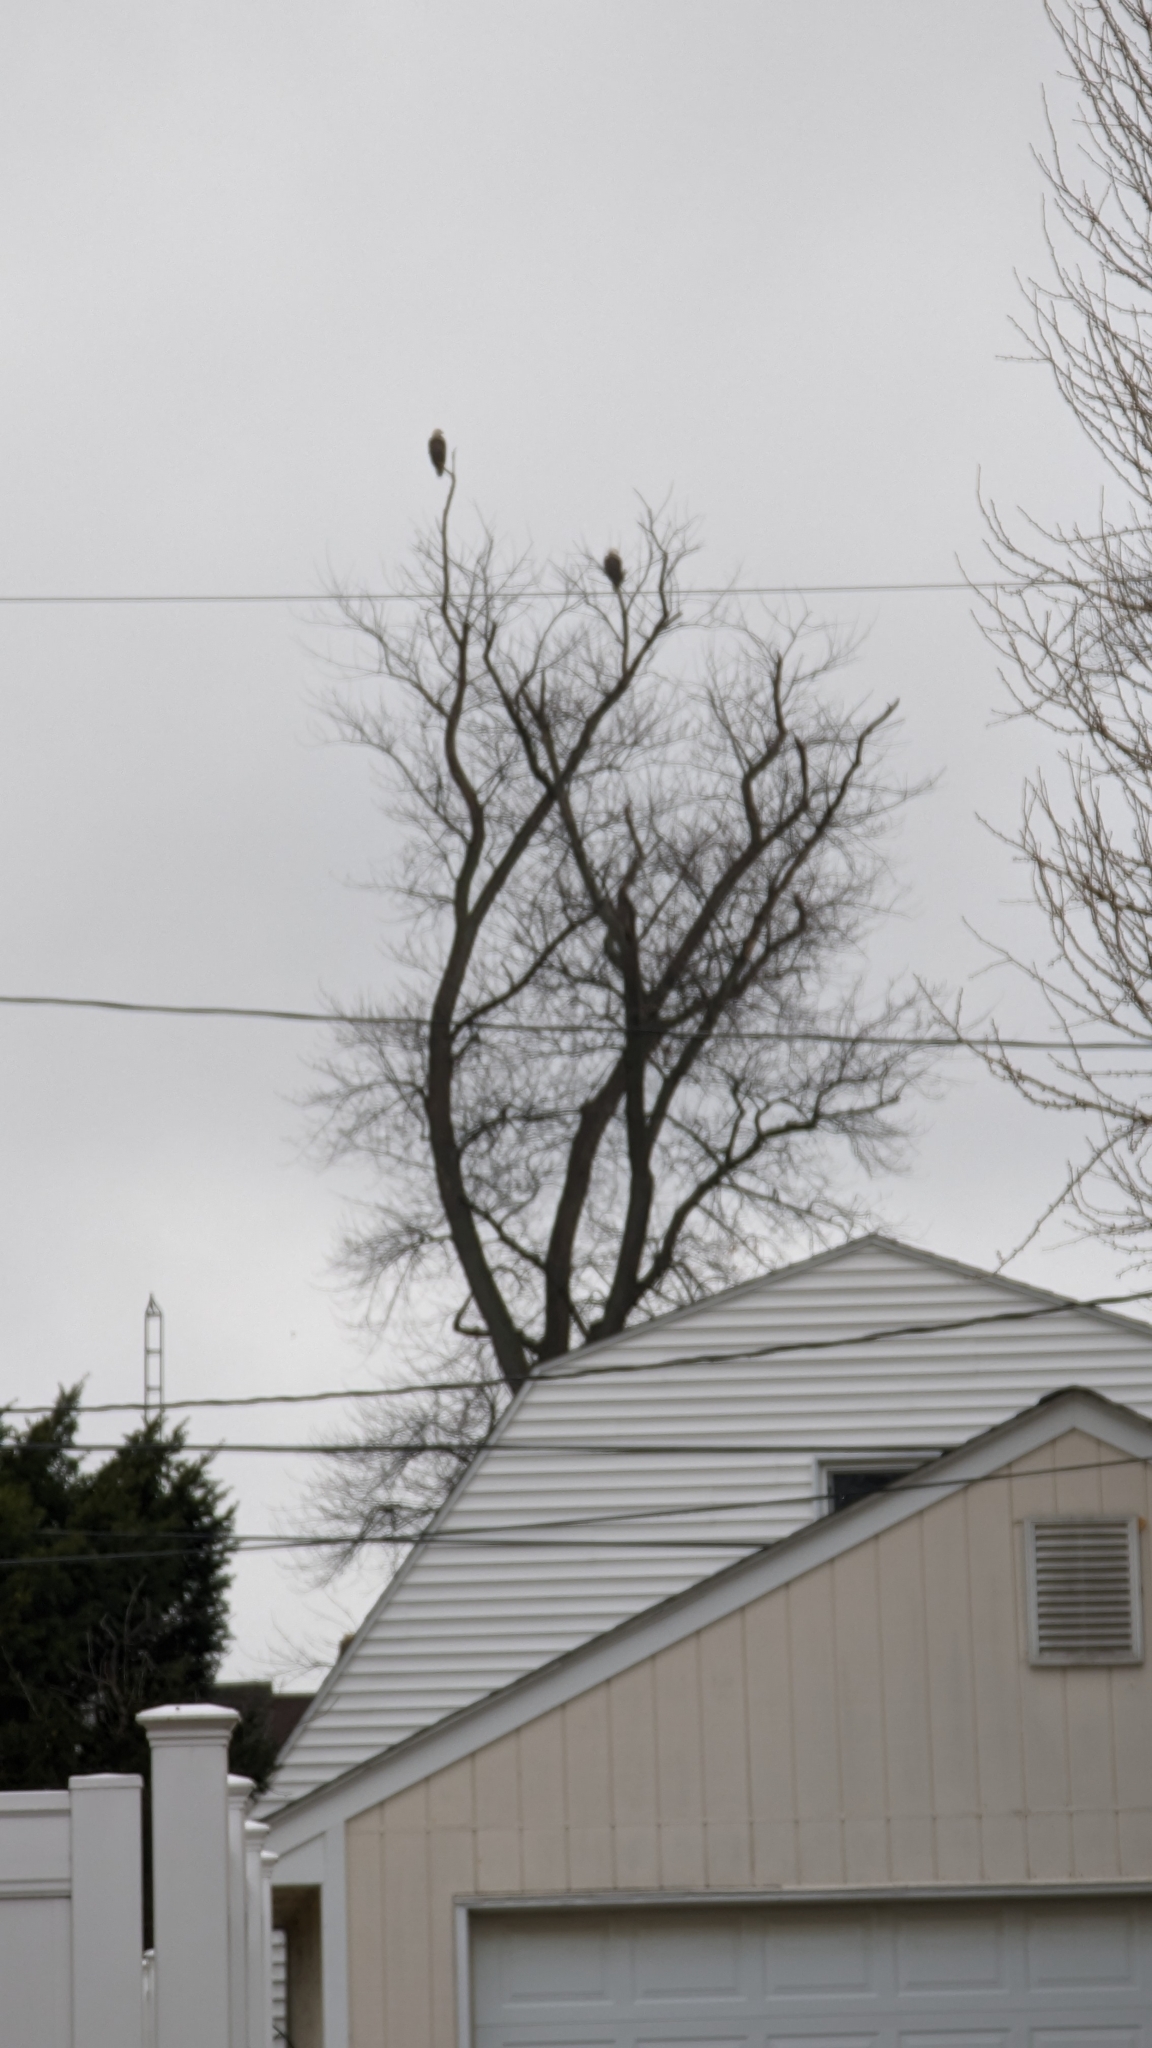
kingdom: Animalia
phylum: Chordata
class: Aves
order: Accipitriformes
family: Accipitridae
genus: Haliaeetus
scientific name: Haliaeetus leucocephalus
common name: Bald eagle
